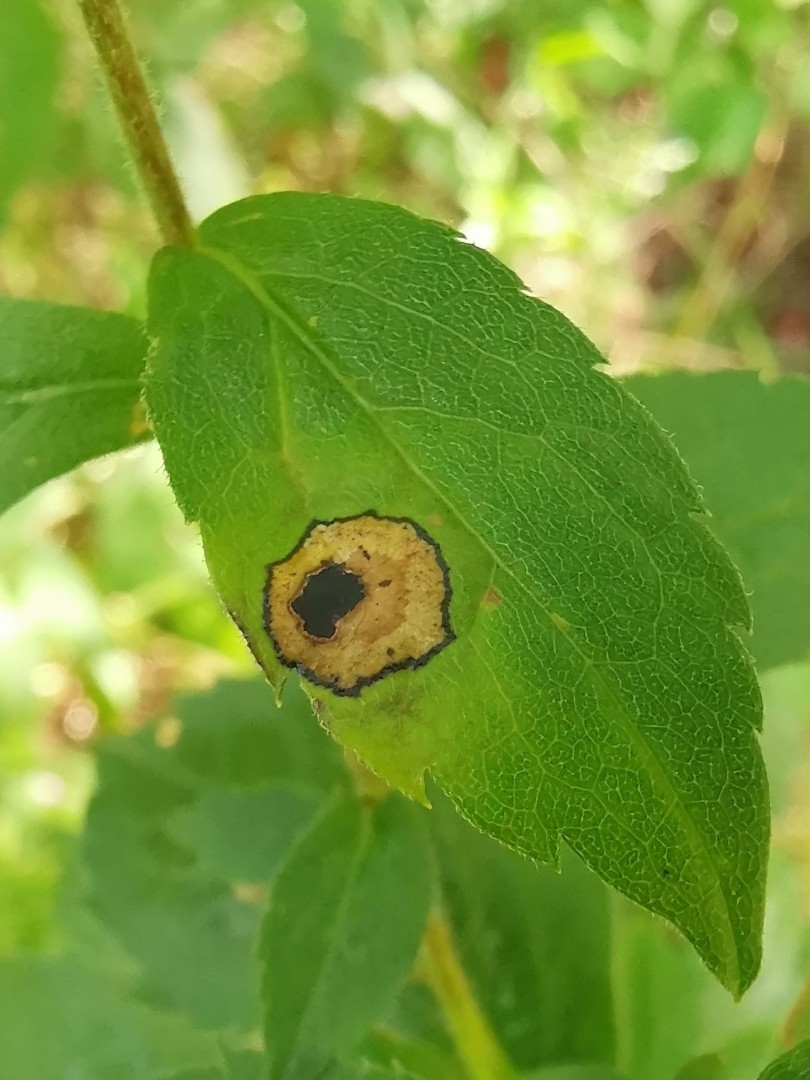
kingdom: Animalia
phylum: Arthropoda
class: Insecta
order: Diptera
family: Cecidomyiidae
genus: Asteromyia
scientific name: Asteromyia carbonifera
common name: Carbonifera goldenrod gall midge
